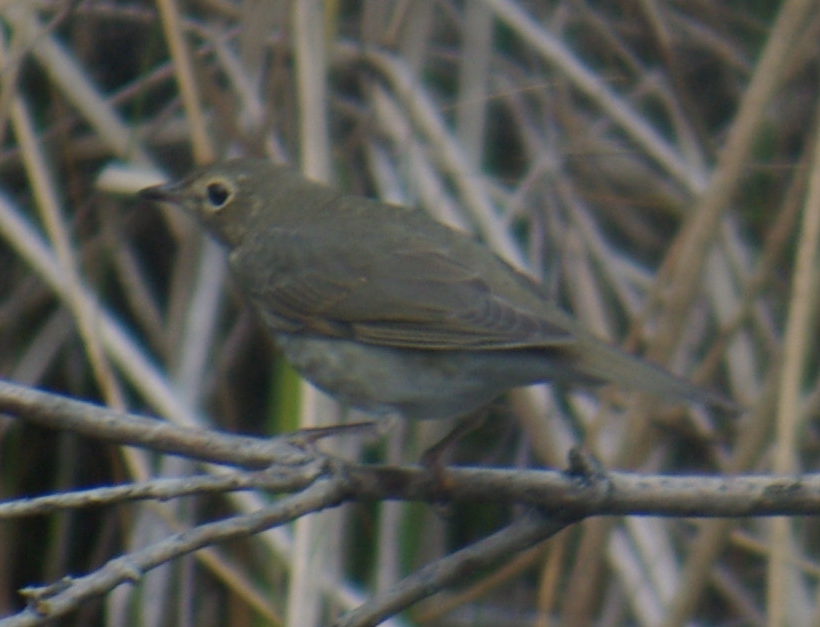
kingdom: Animalia
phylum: Chordata
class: Aves
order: Passeriformes
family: Turdidae
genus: Catharus
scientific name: Catharus ustulatus
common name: Swainson's thrush
